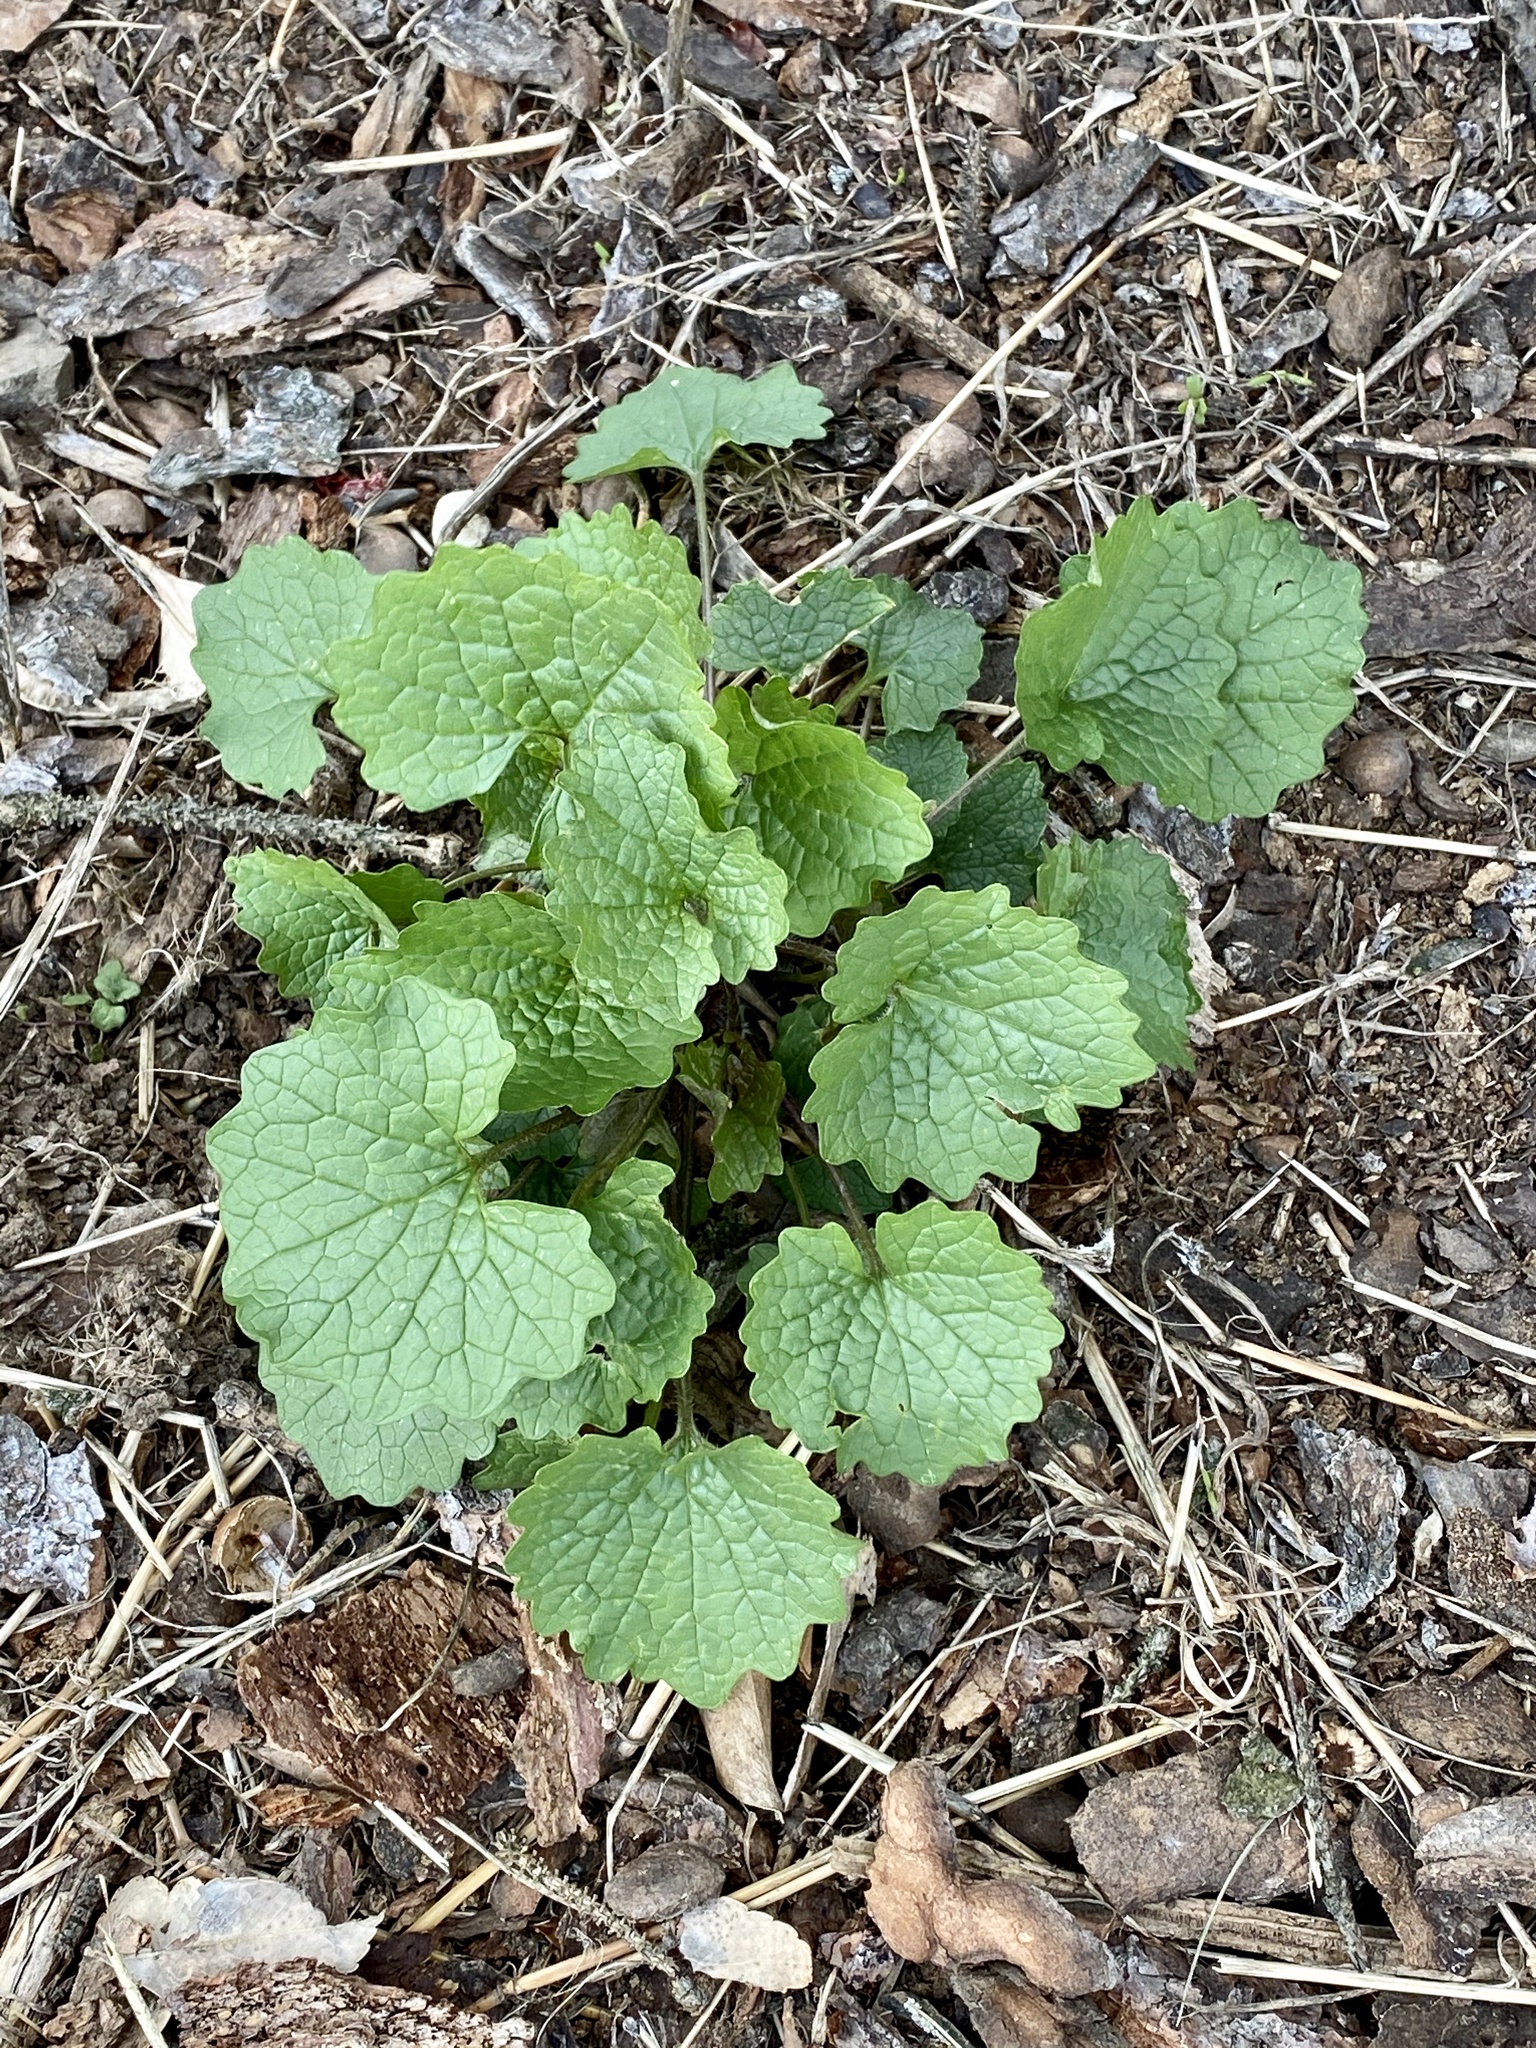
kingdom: Plantae
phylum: Tracheophyta
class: Magnoliopsida
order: Brassicales
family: Brassicaceae
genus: Alliaria
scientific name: Alliaria petiolata
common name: Garlic mustard
